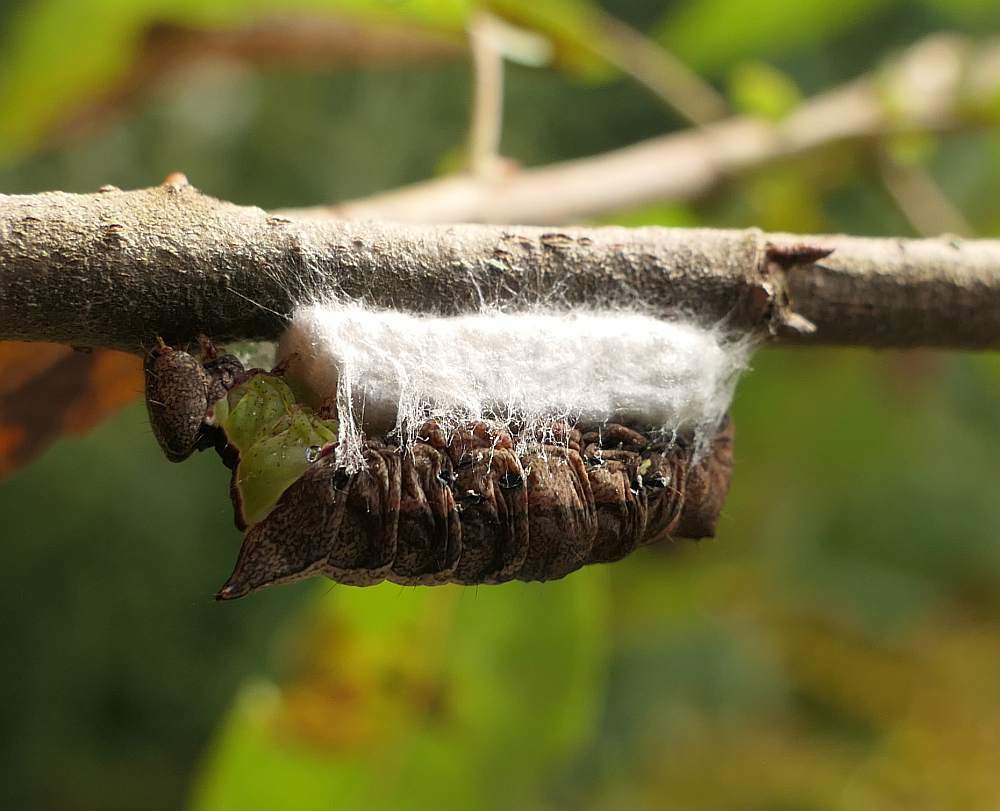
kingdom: Animalia
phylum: Arthropoda
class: Insecta
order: Lepidoptera
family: Notodontidae
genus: Schizura
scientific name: Schizura
